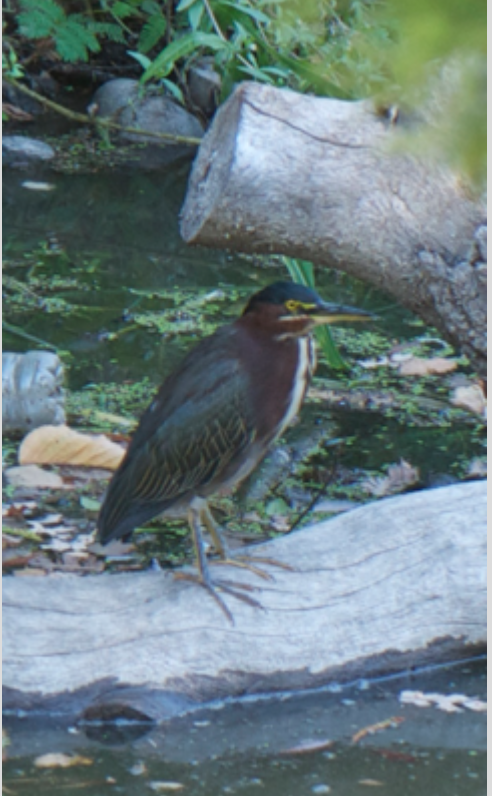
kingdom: Animalia
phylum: Chordata
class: Aves
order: Pelecaniformes
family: Ardeidae
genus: Butorides
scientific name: Butorides virescens
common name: Green heron
